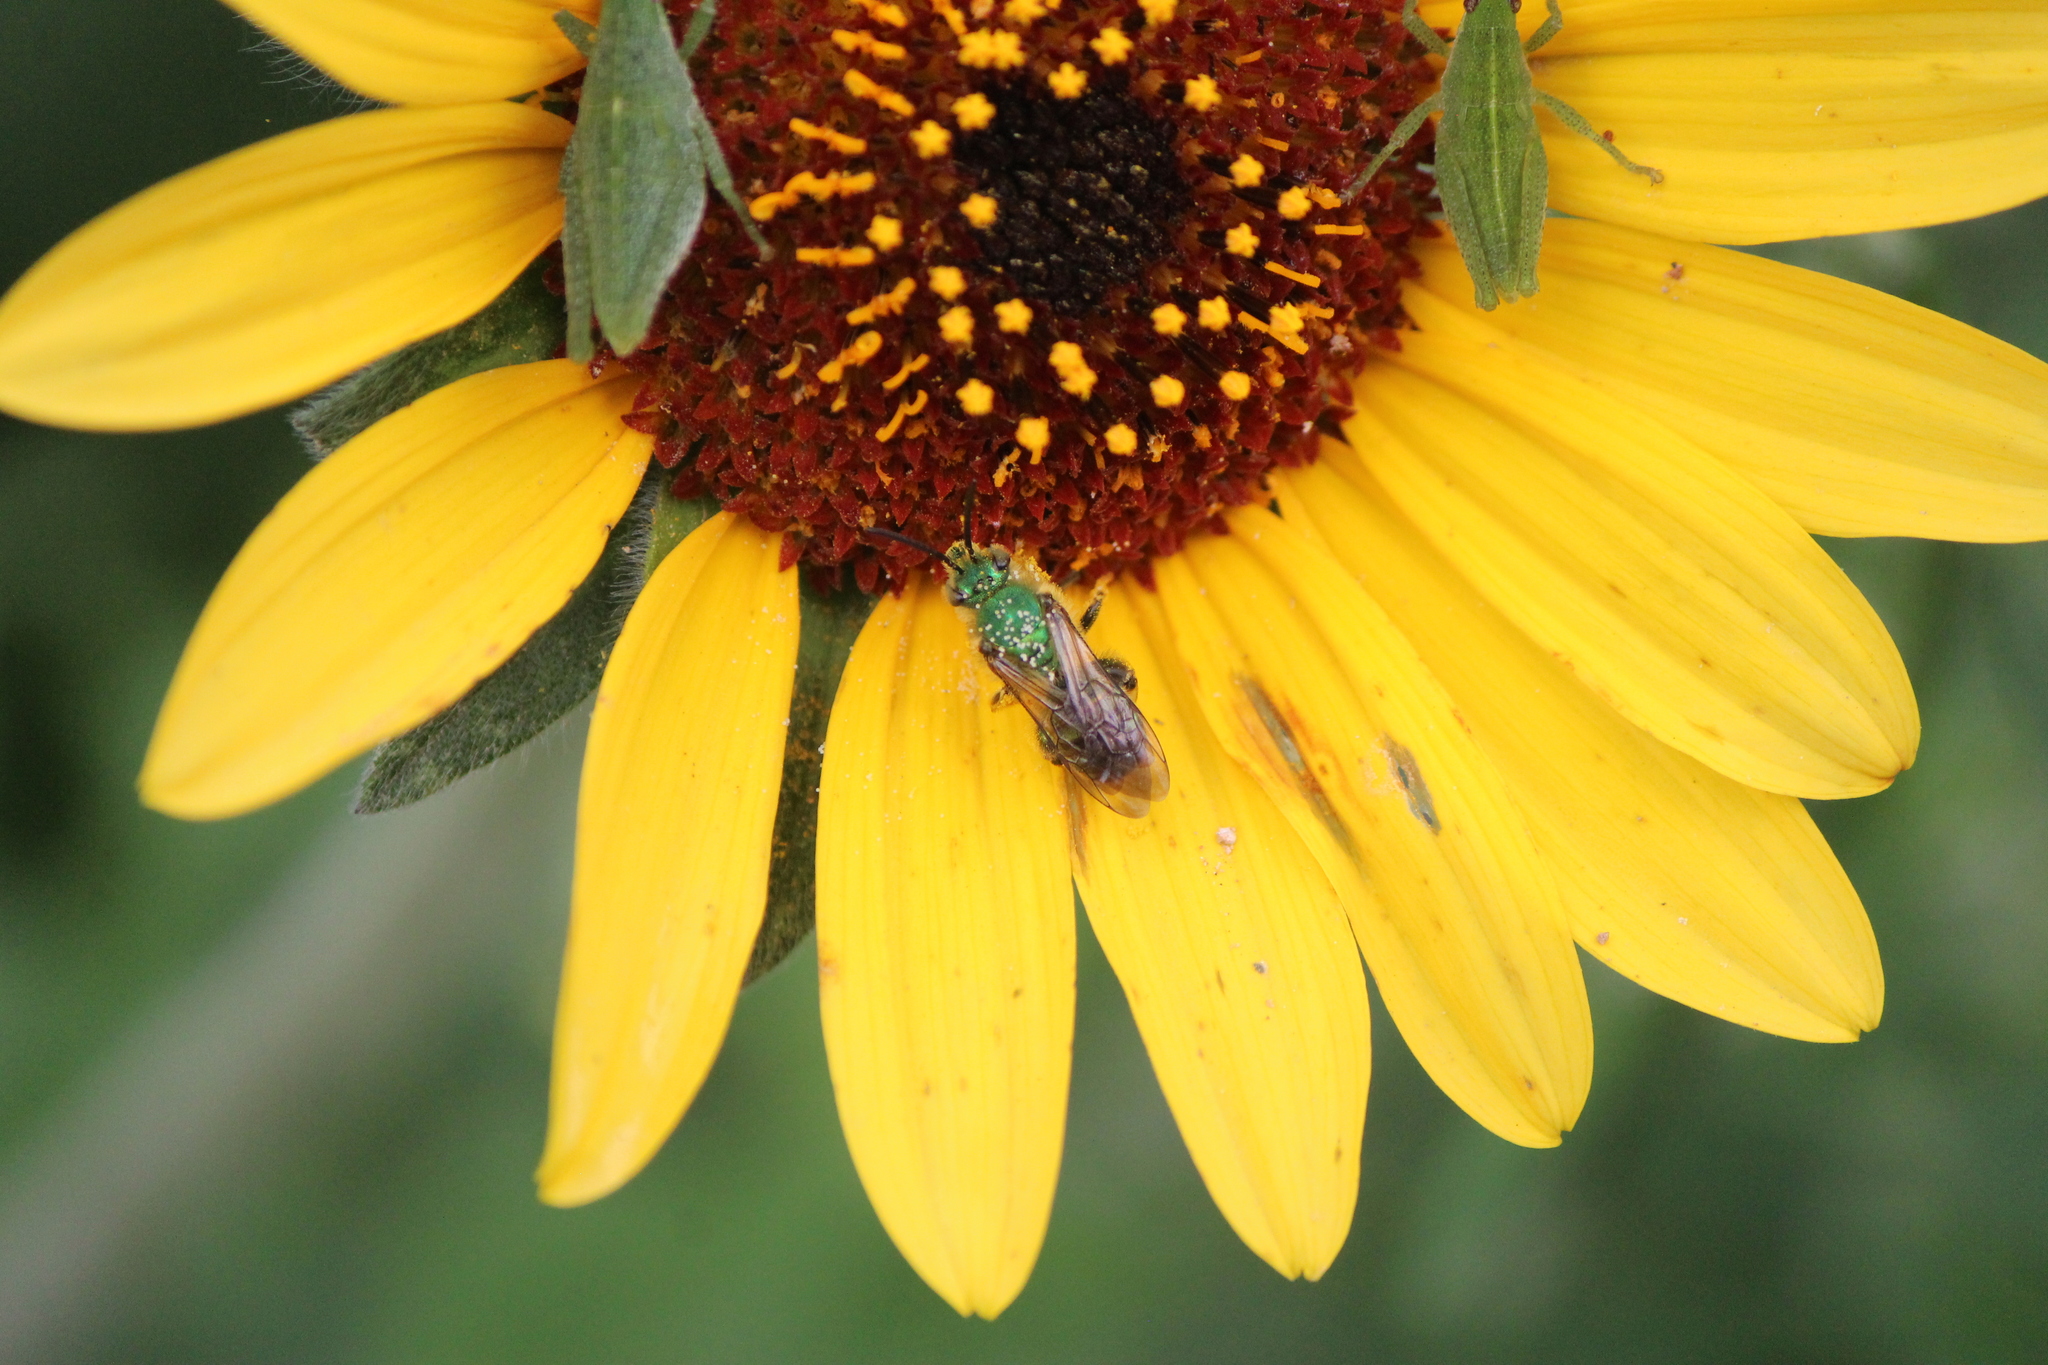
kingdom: Animalia
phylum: Arthropoda
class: Insecta
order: Hymenoptera
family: Halictidae
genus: Paragapostemon
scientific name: Paragapostemon coelestinus
